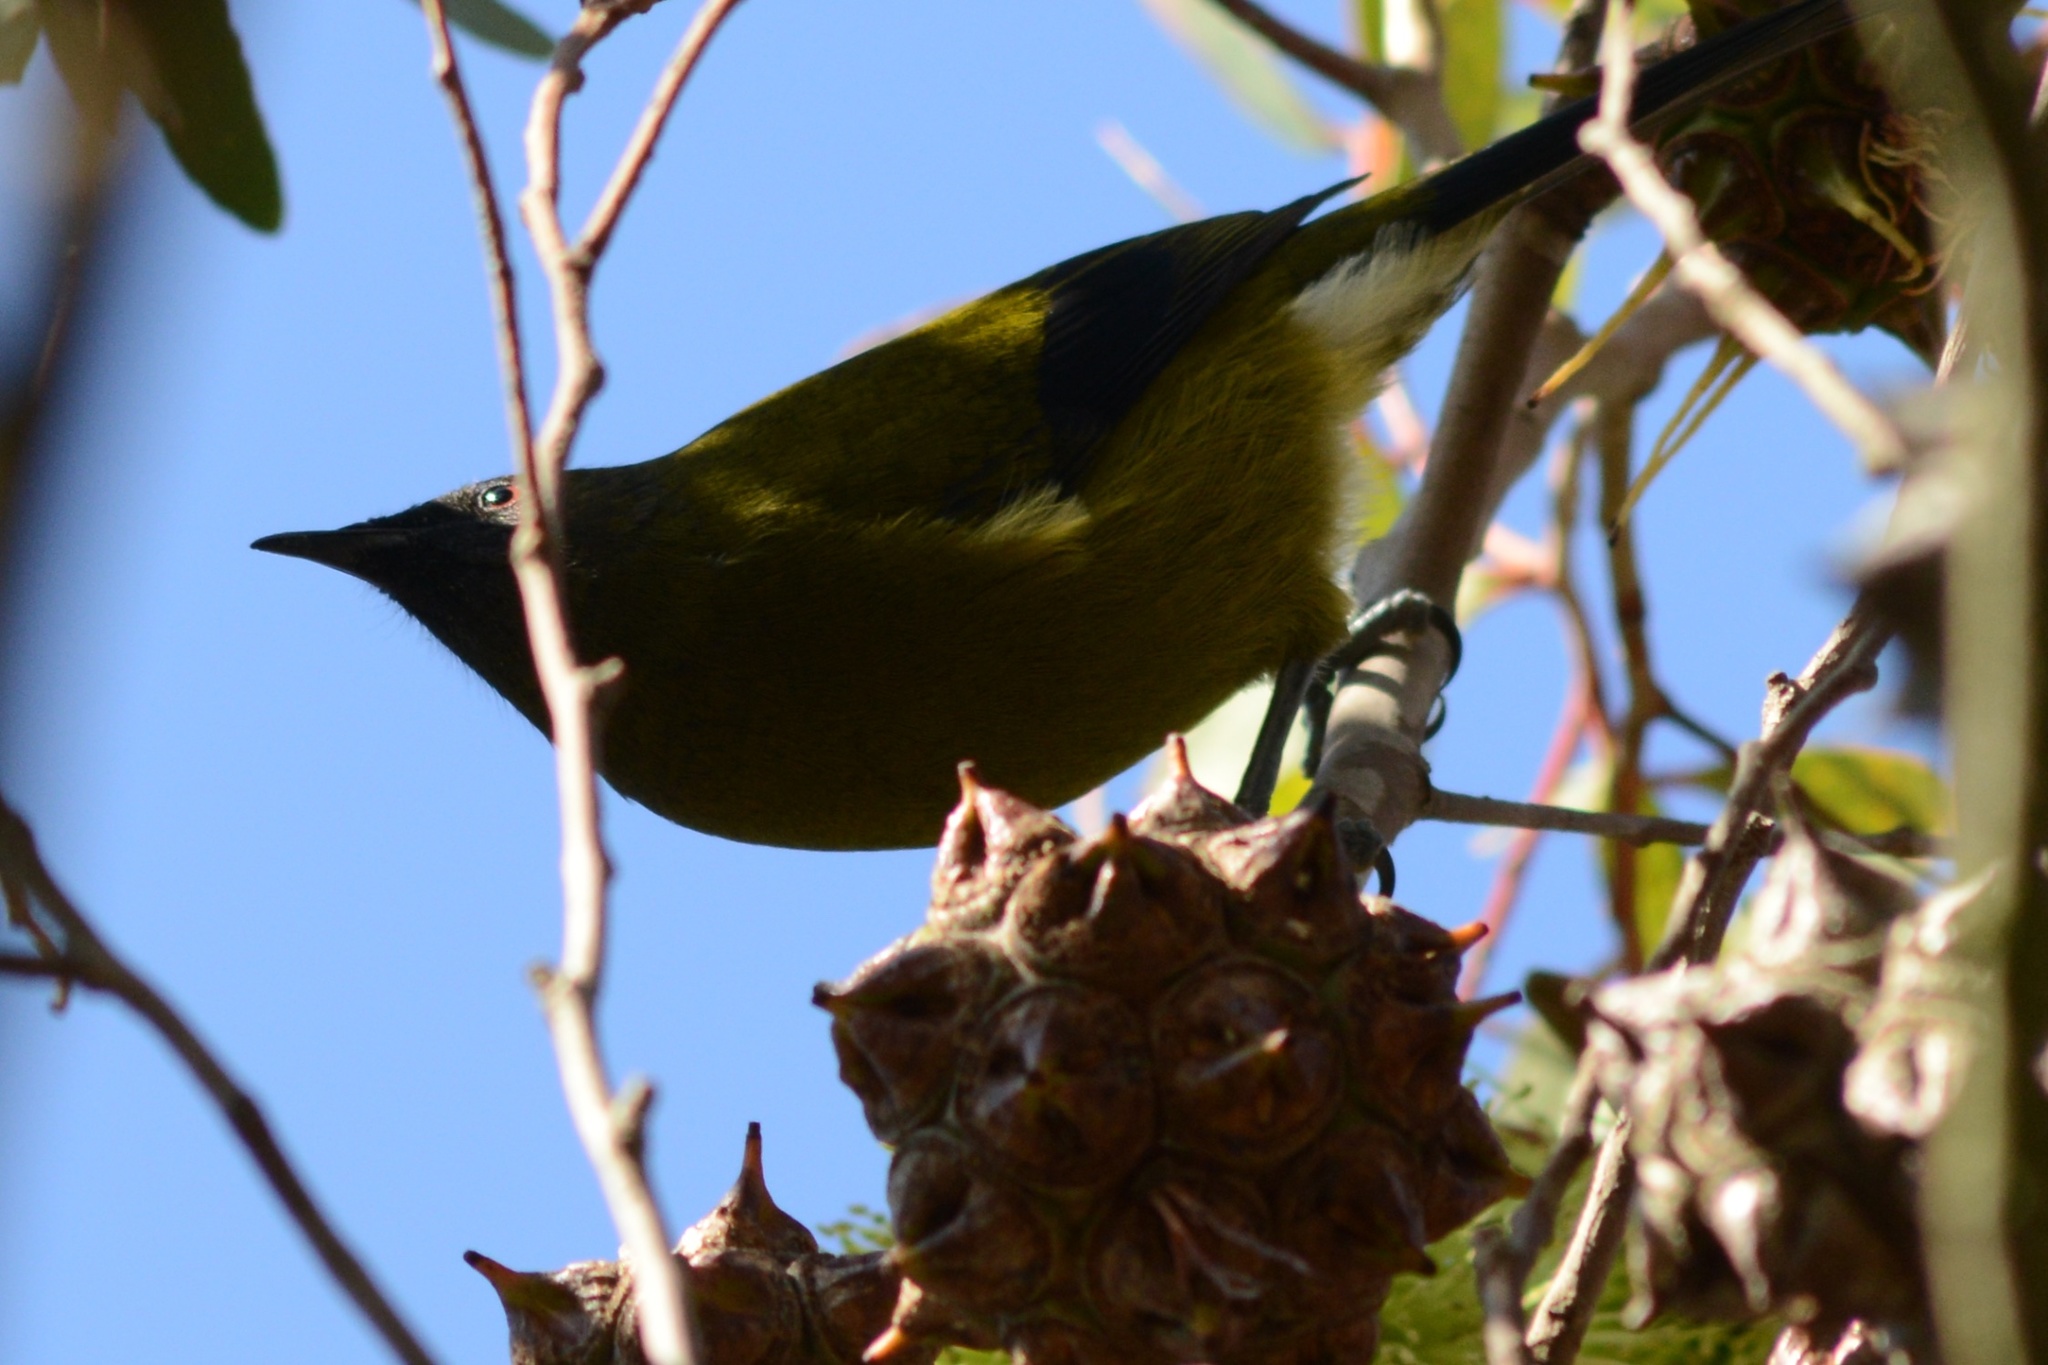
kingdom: Animalia
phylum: Chordata
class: Aves
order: Passeriformes
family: Meliphagidae
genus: Anthornis
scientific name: Anthornis melanura
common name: New zealand bellbird
